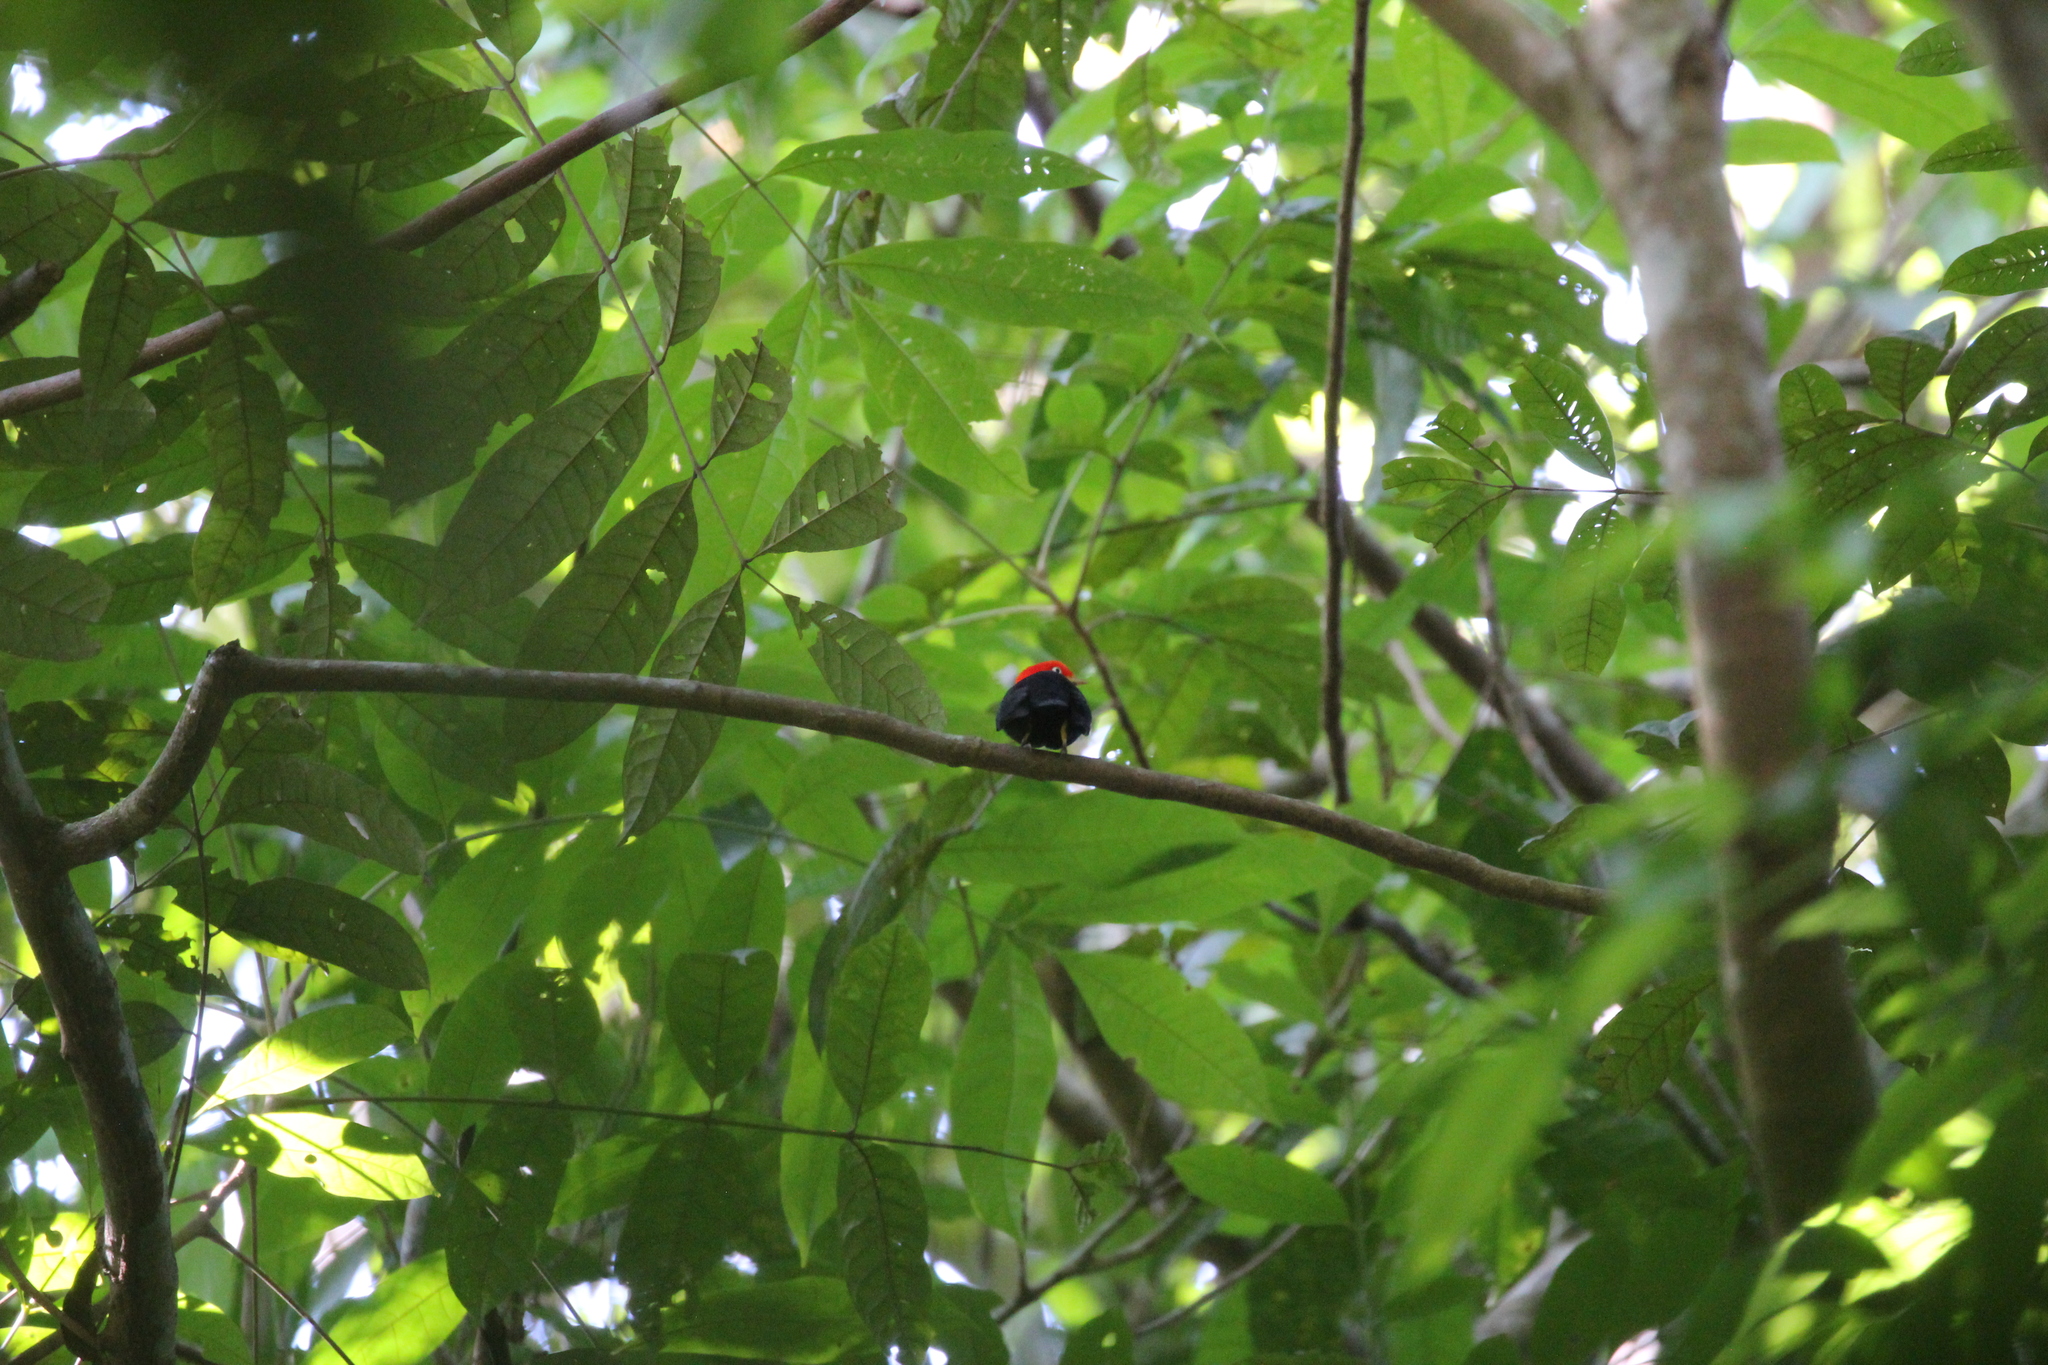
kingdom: Animalia
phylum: Chordata
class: Aves
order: Passeriformes
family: Pipridae
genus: Pipra
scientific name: Pipra mentalis
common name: Red-capped manakin
